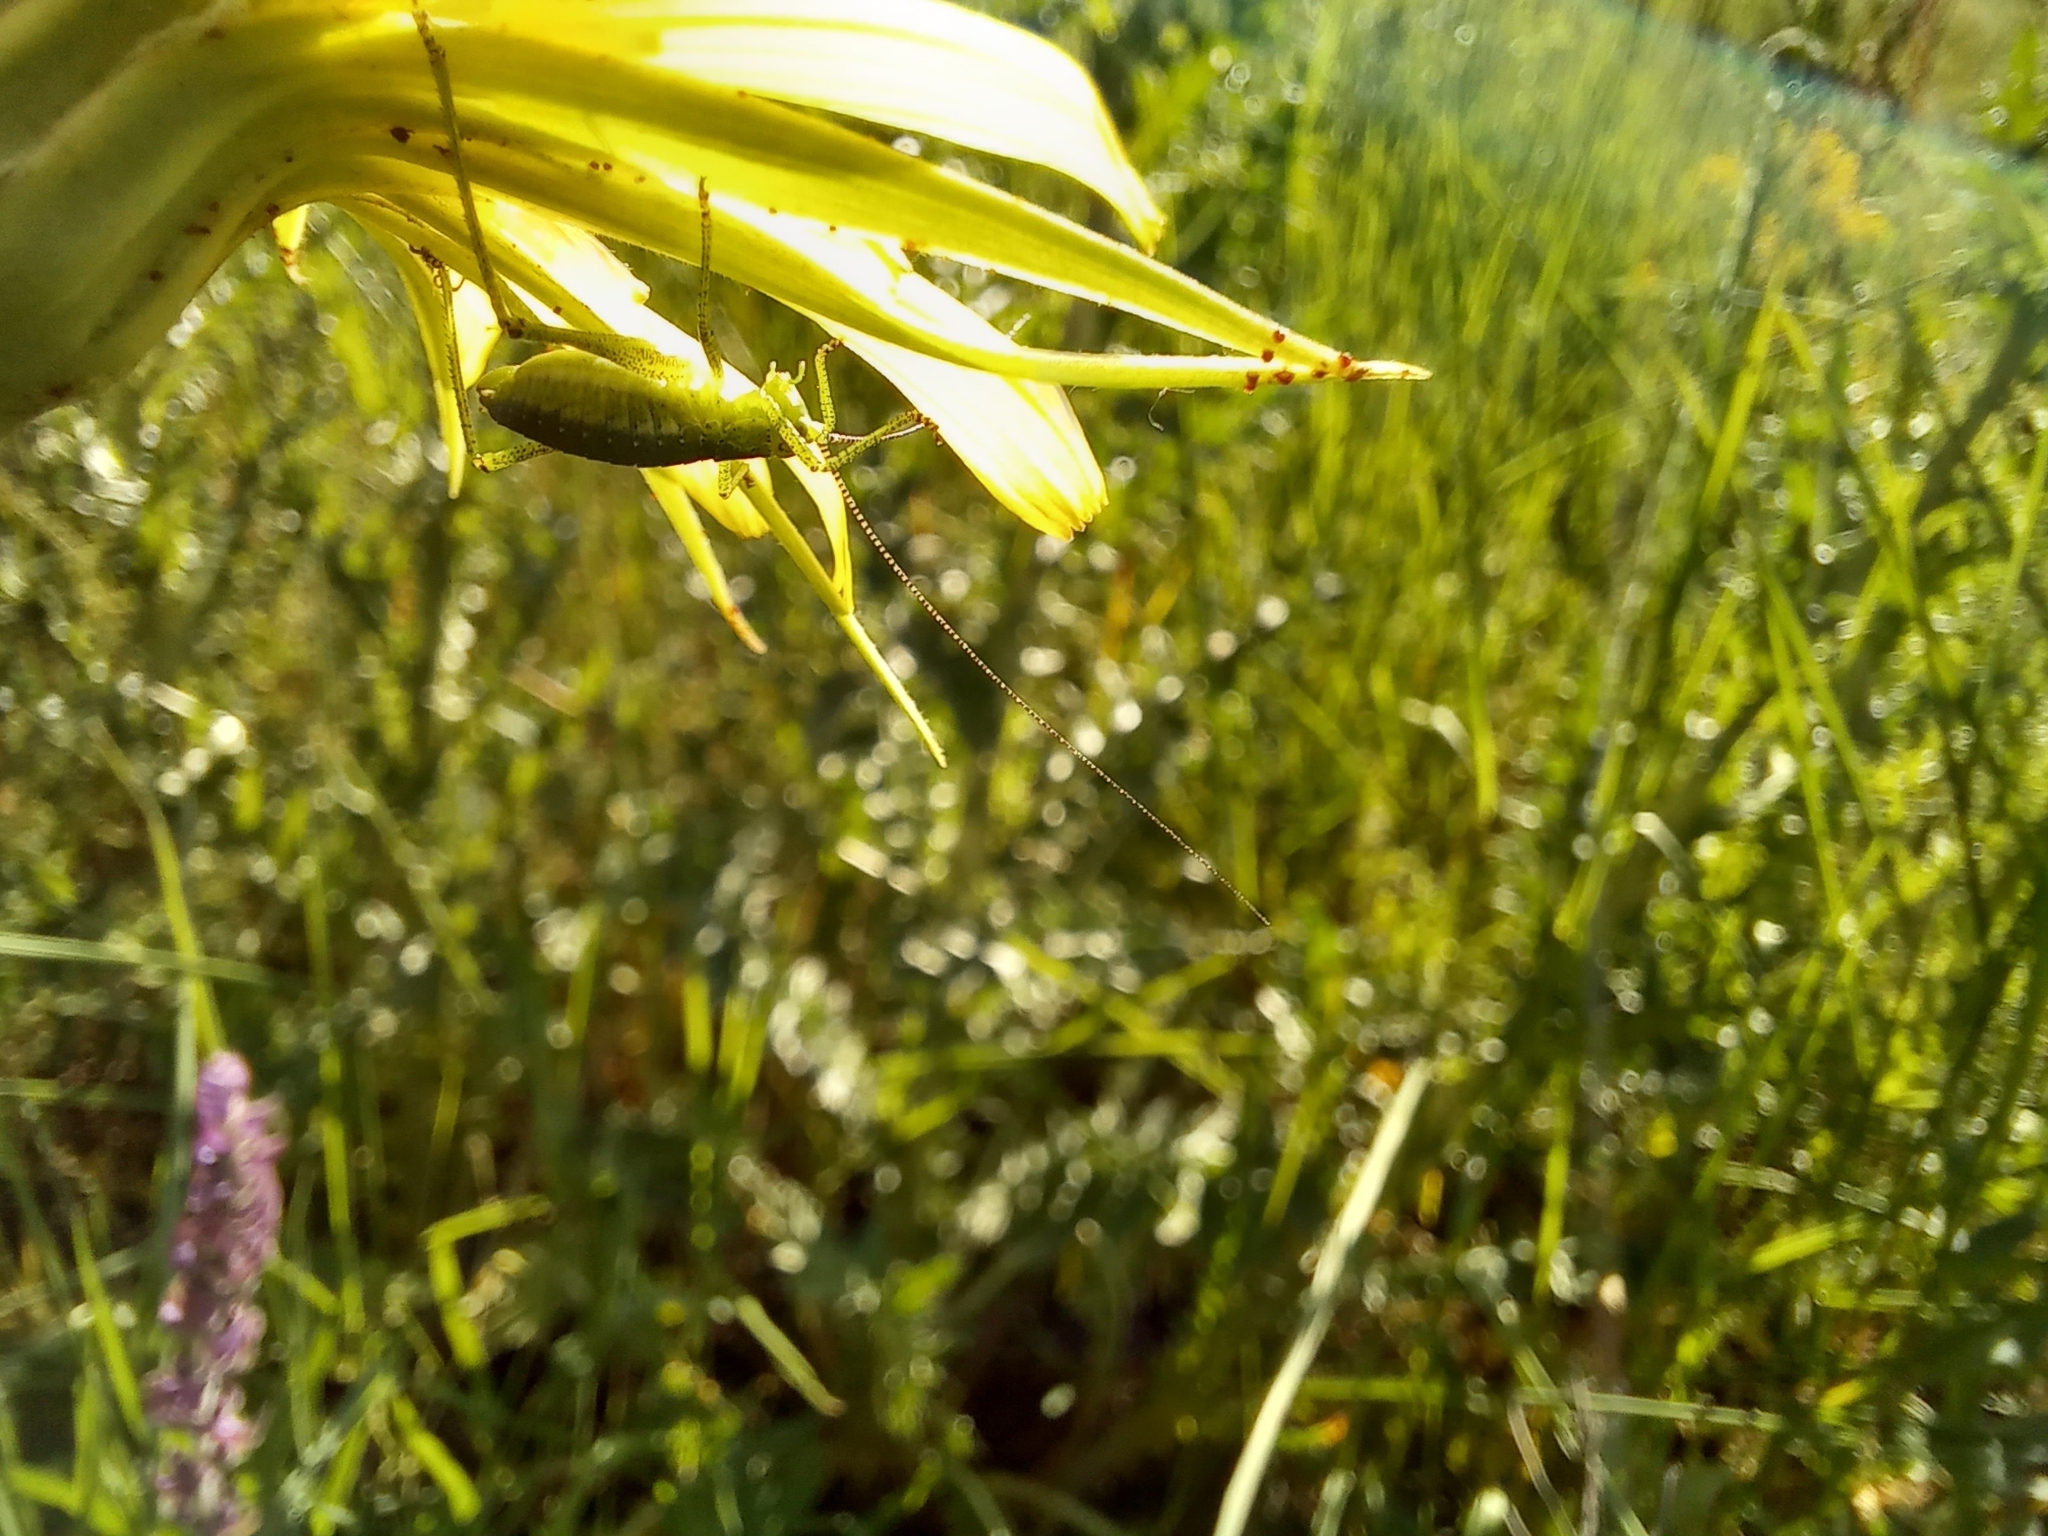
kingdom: Animalia
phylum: Arthropoda
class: Insecta
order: Orthoptera
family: Tettigoniidae
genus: Leptophyes
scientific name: Leptophyes albovittata
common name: Striped bush-cricket
